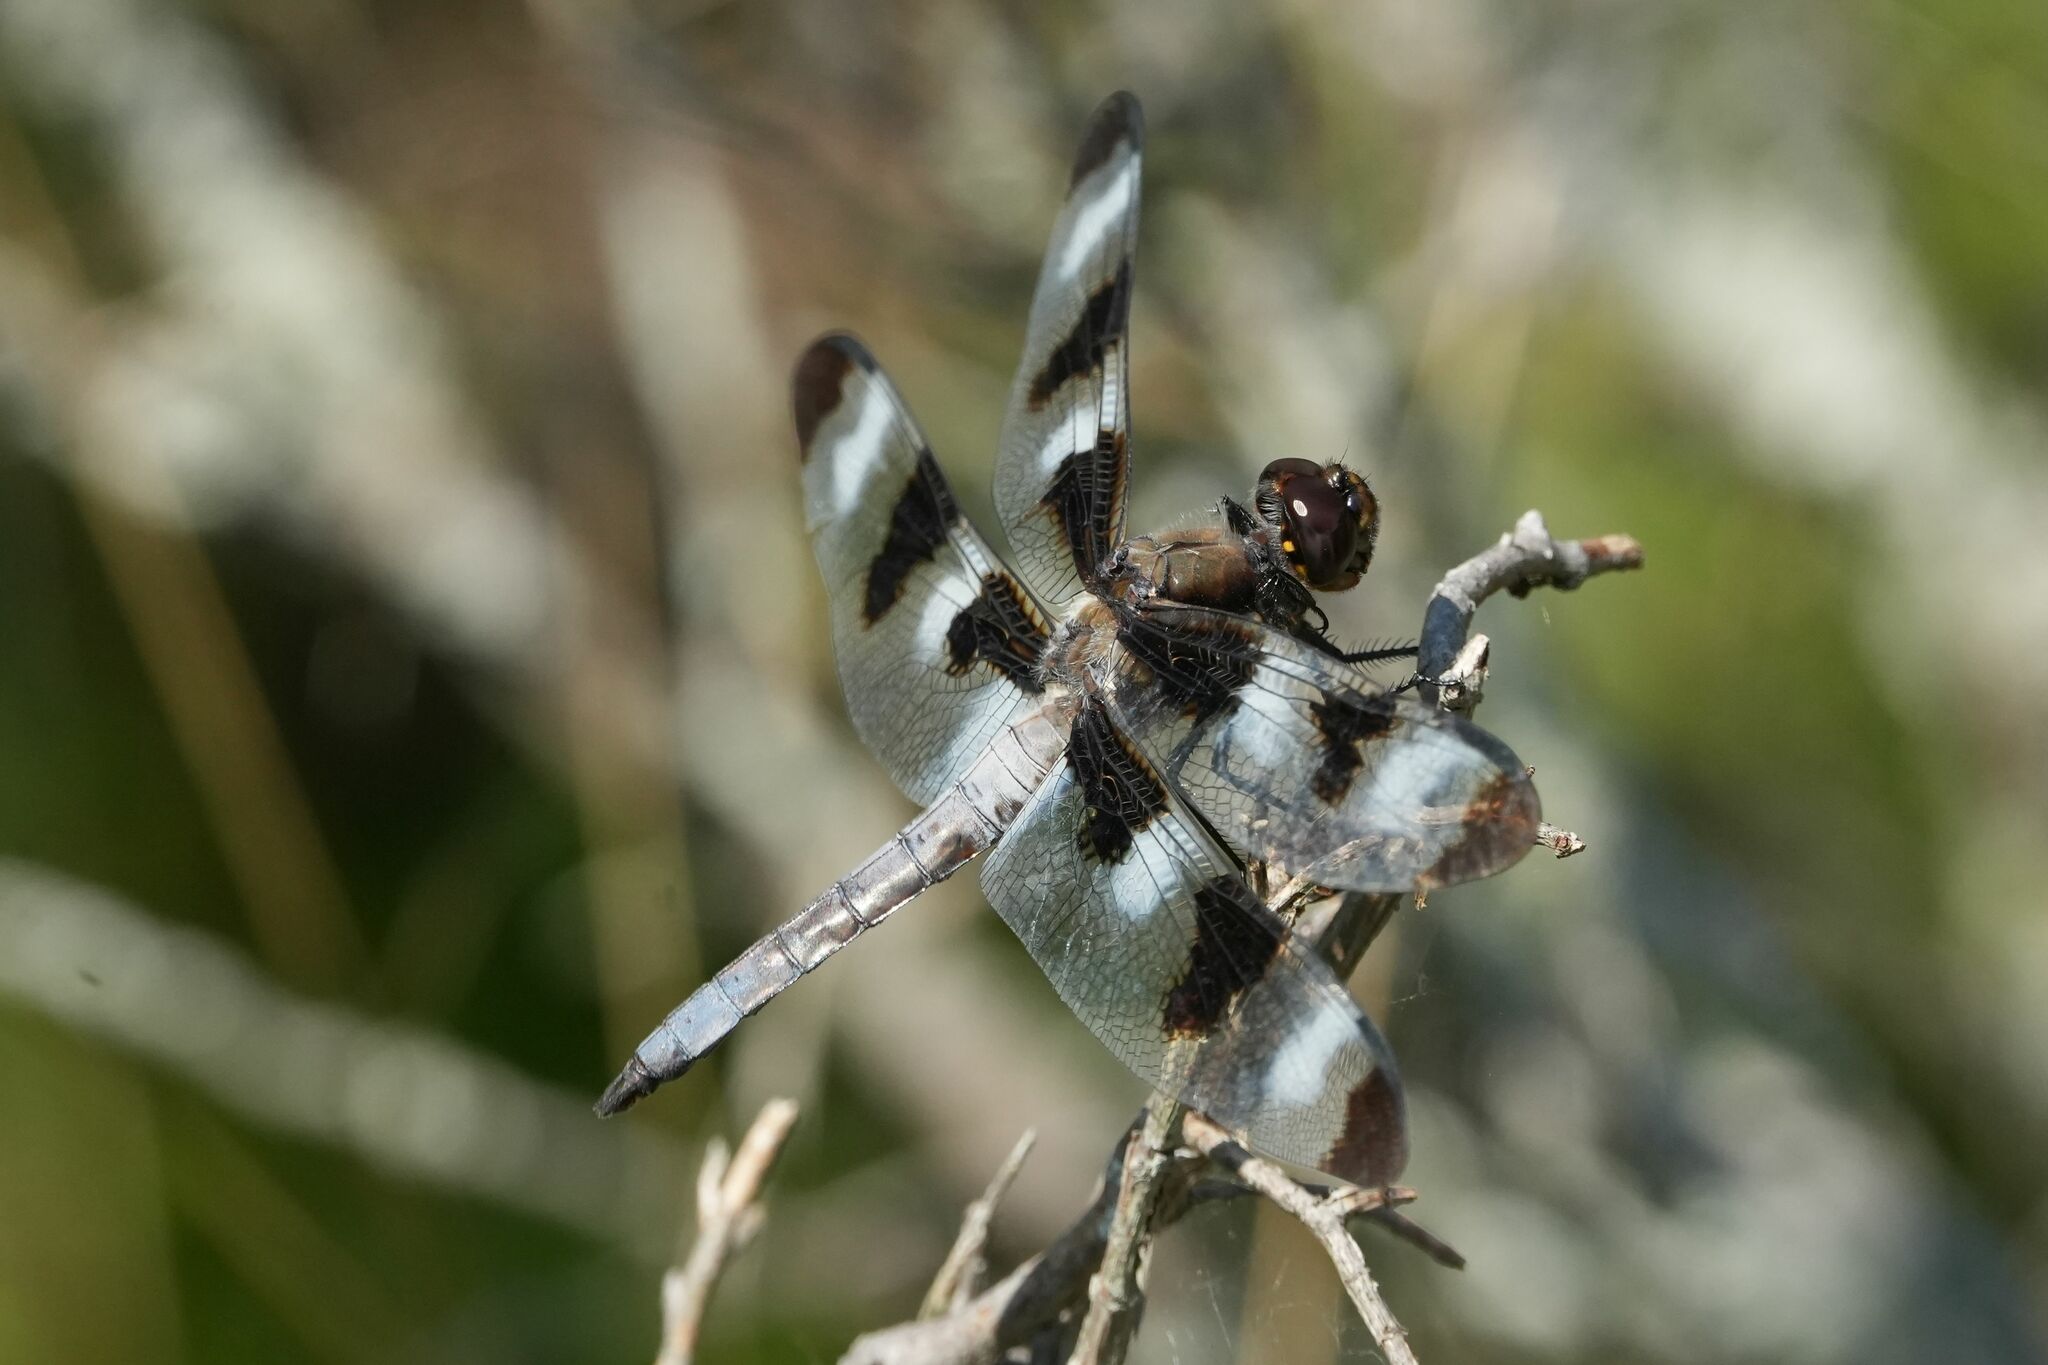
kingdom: Animalia
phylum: Arthropoda
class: Insecta
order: Odonata
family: Libellulidae
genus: Libellula
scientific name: Libellula pulchella
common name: Twelve-spotted skimmer
